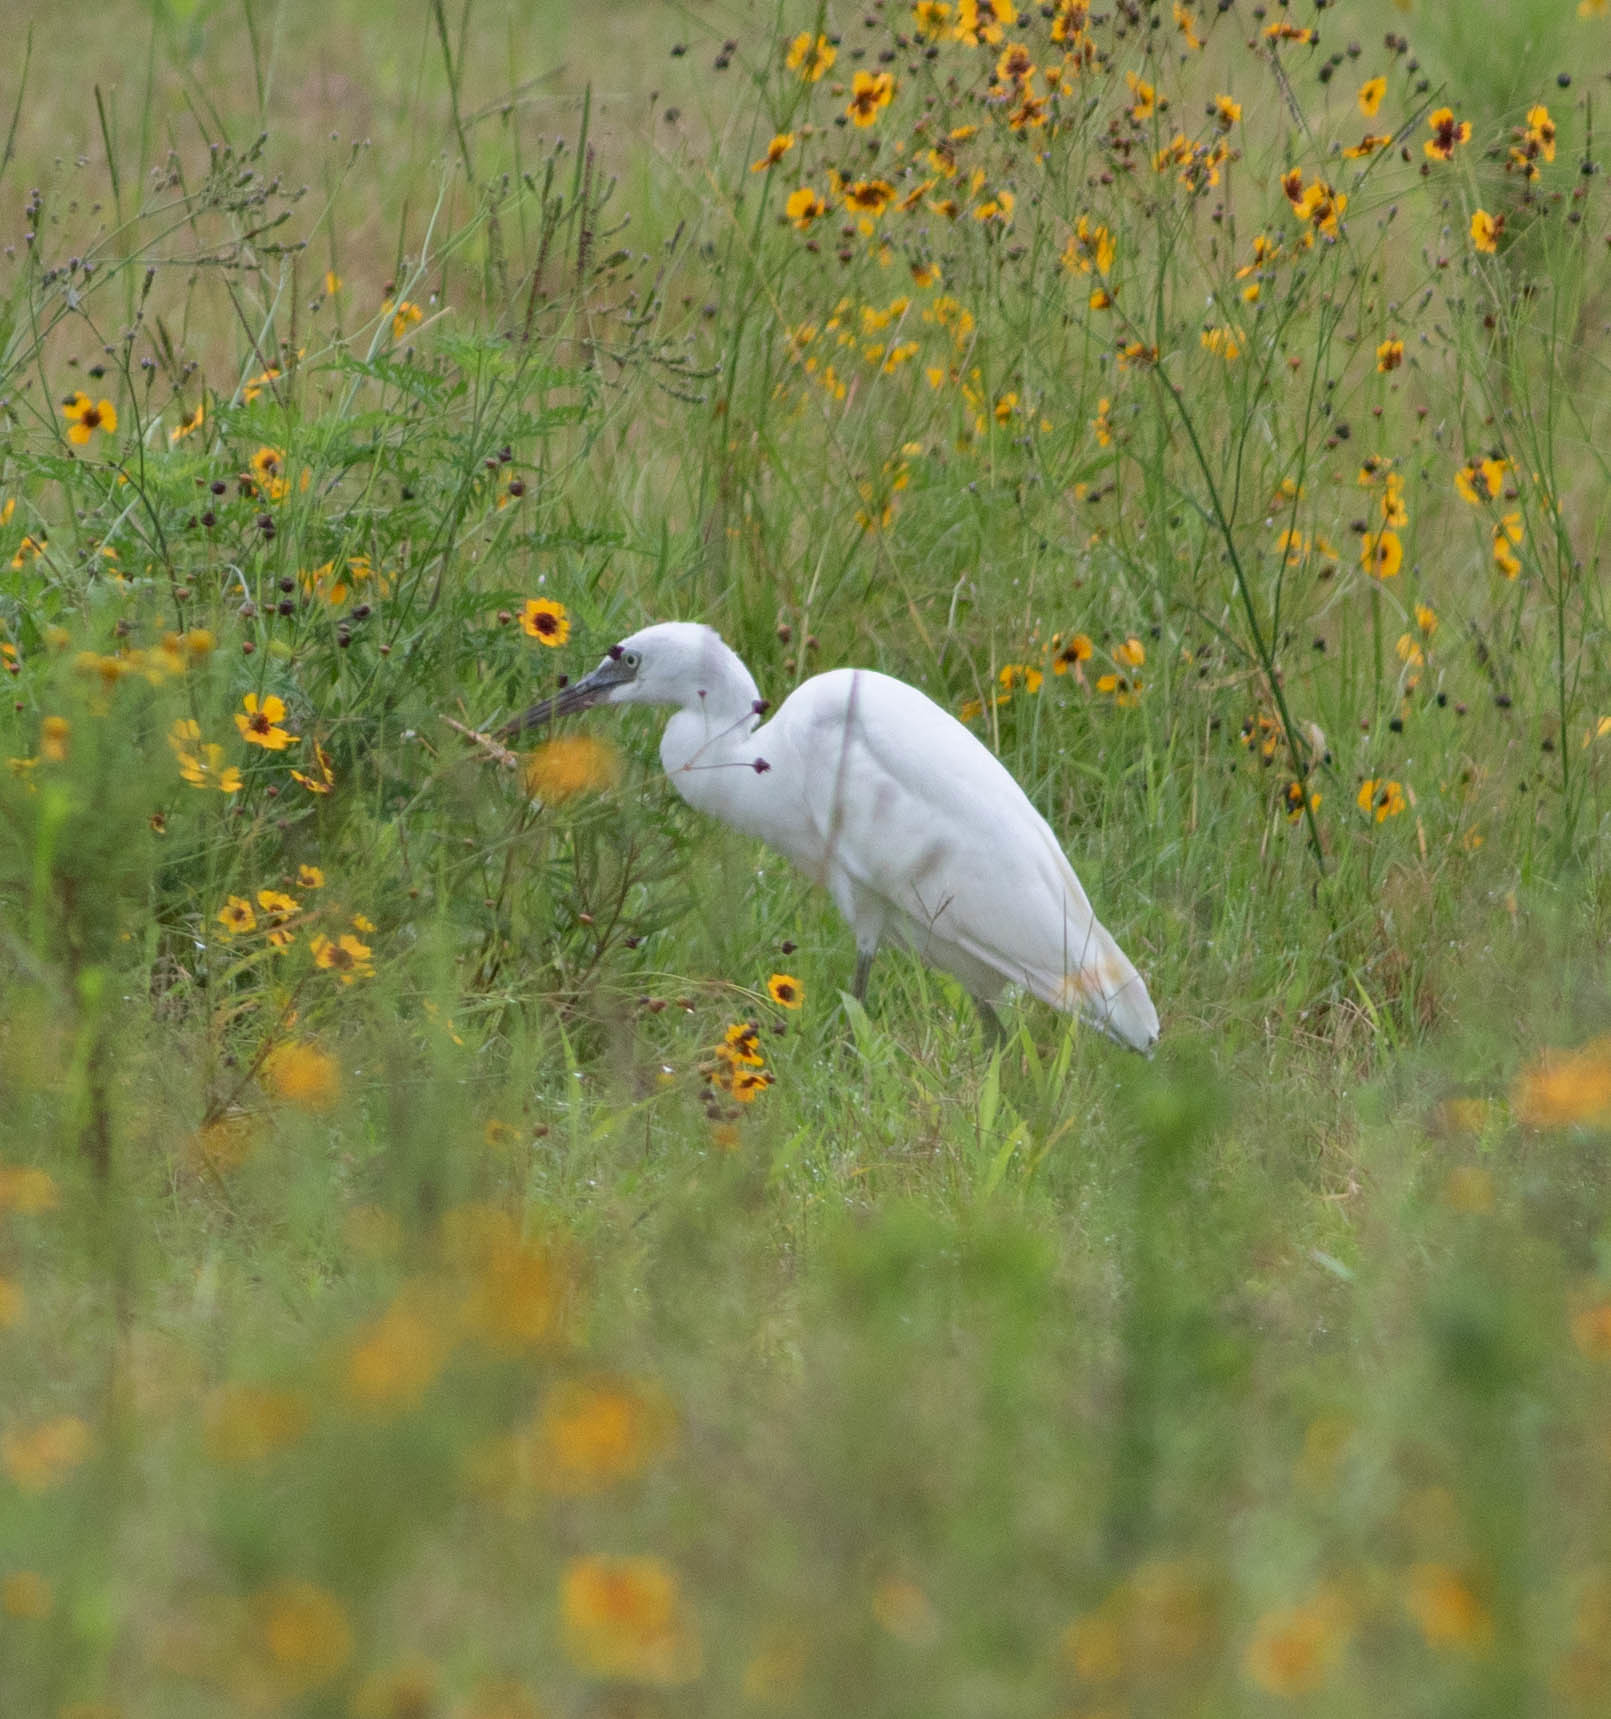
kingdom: Animalia
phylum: Chordata
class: Aves
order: Pelecaniformes
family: Ardeidae
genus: Egretta
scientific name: Egretta caerulea
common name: Little blue heron
